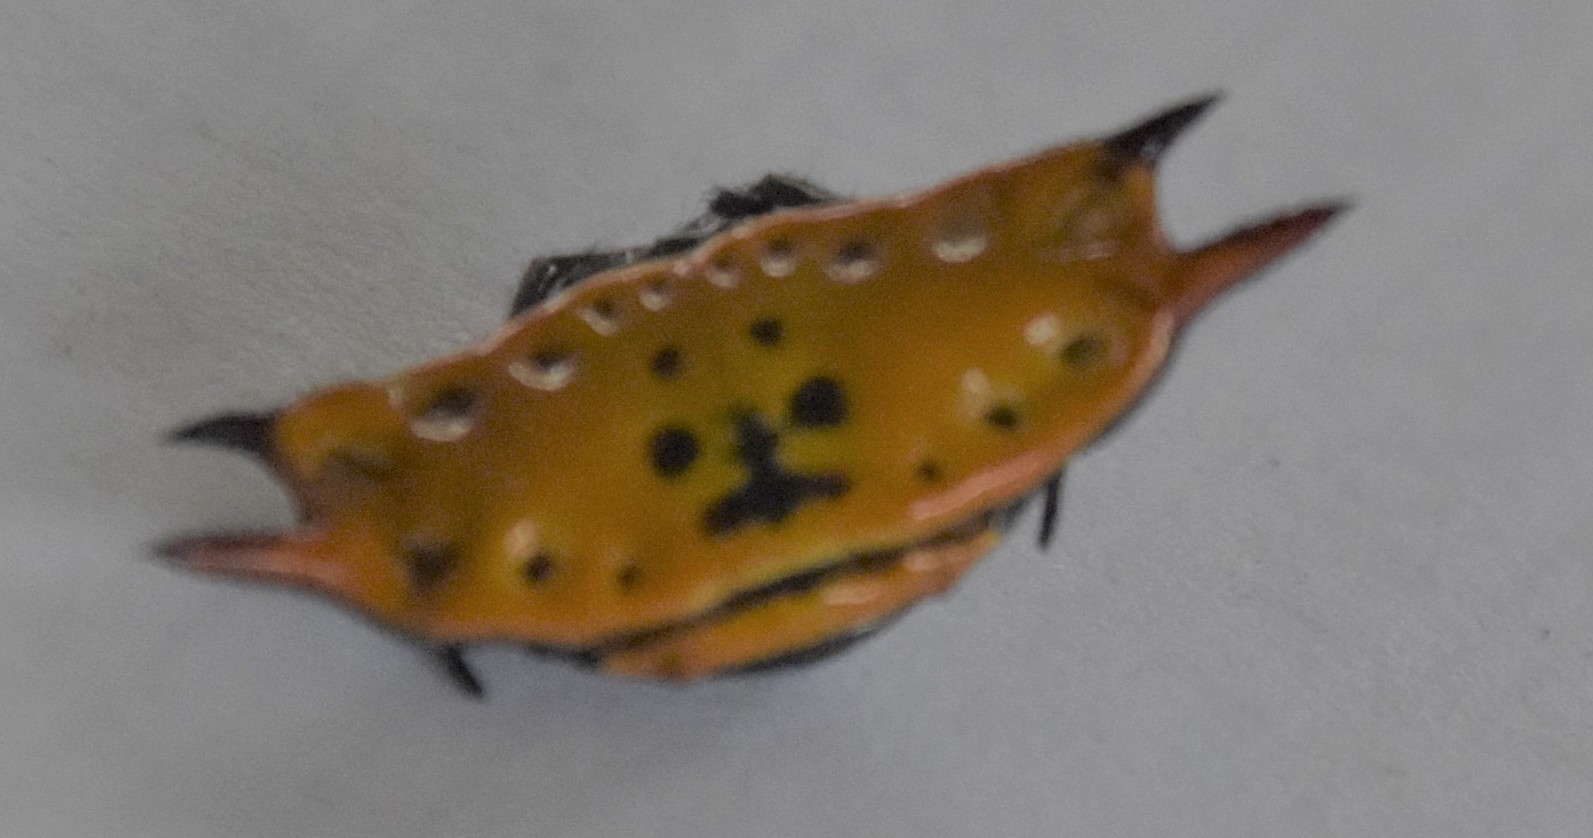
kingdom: Animalia
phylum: Arthropoda
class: Arachnida
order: Araneae
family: Araneidae
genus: Gasteracantha
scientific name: Gasteracantha quadrispinosa
